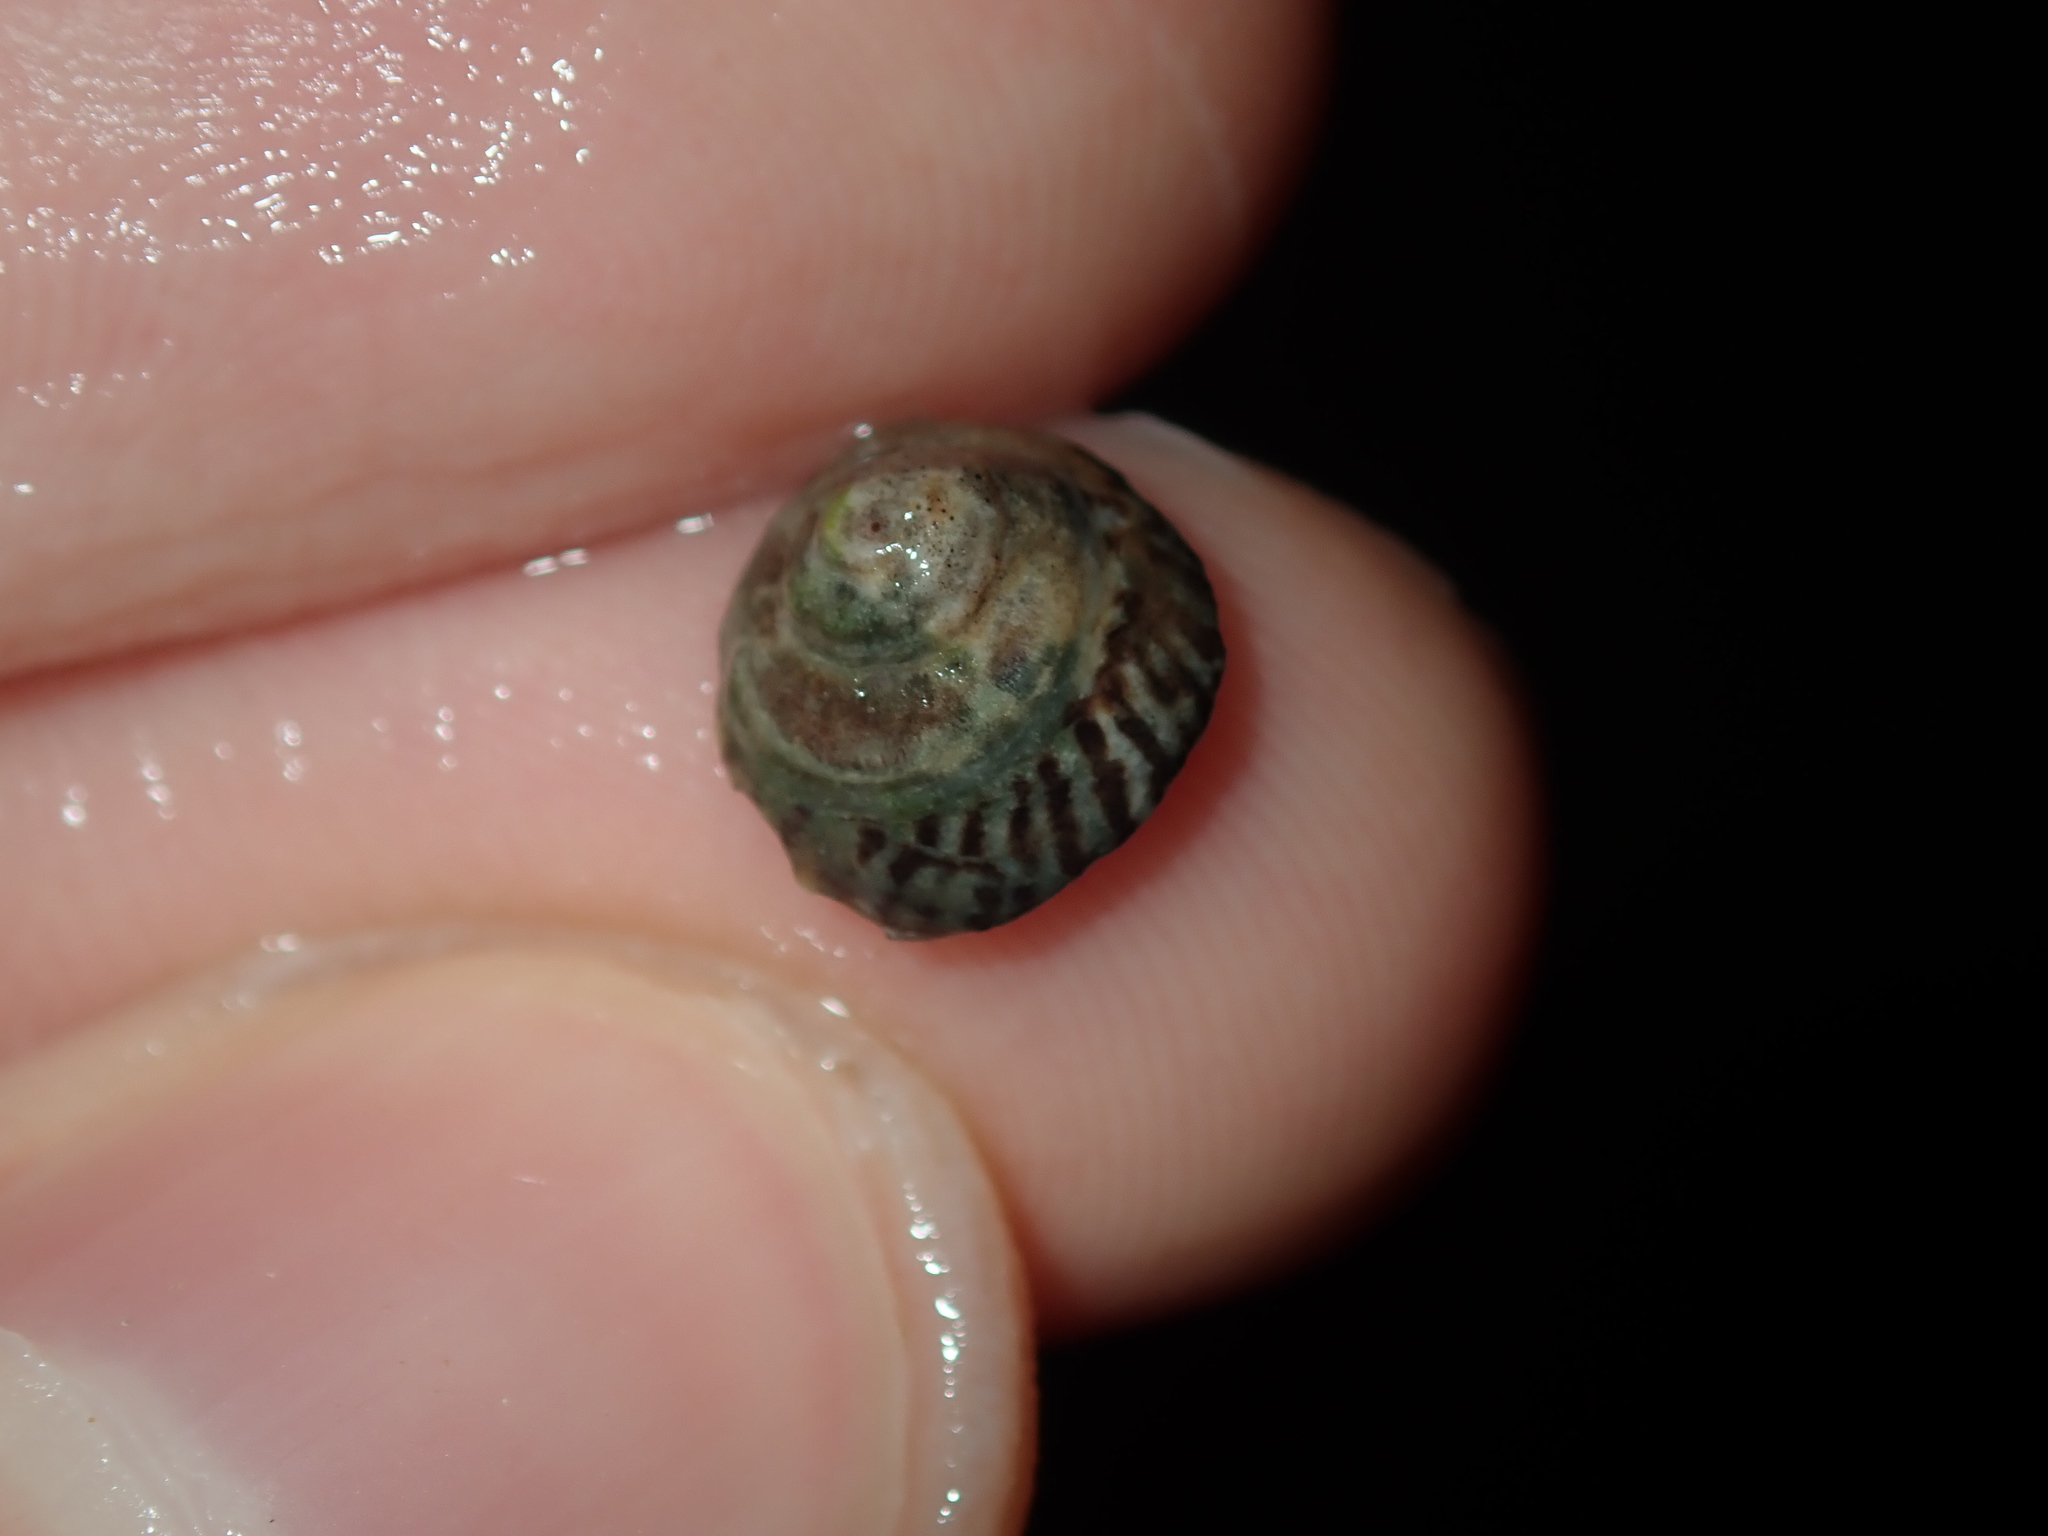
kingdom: Animalia
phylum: Mollusca
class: Gastropoda
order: Littorinimorpha
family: Littorinidae
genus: Bembicium
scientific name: Bembicium nanum
